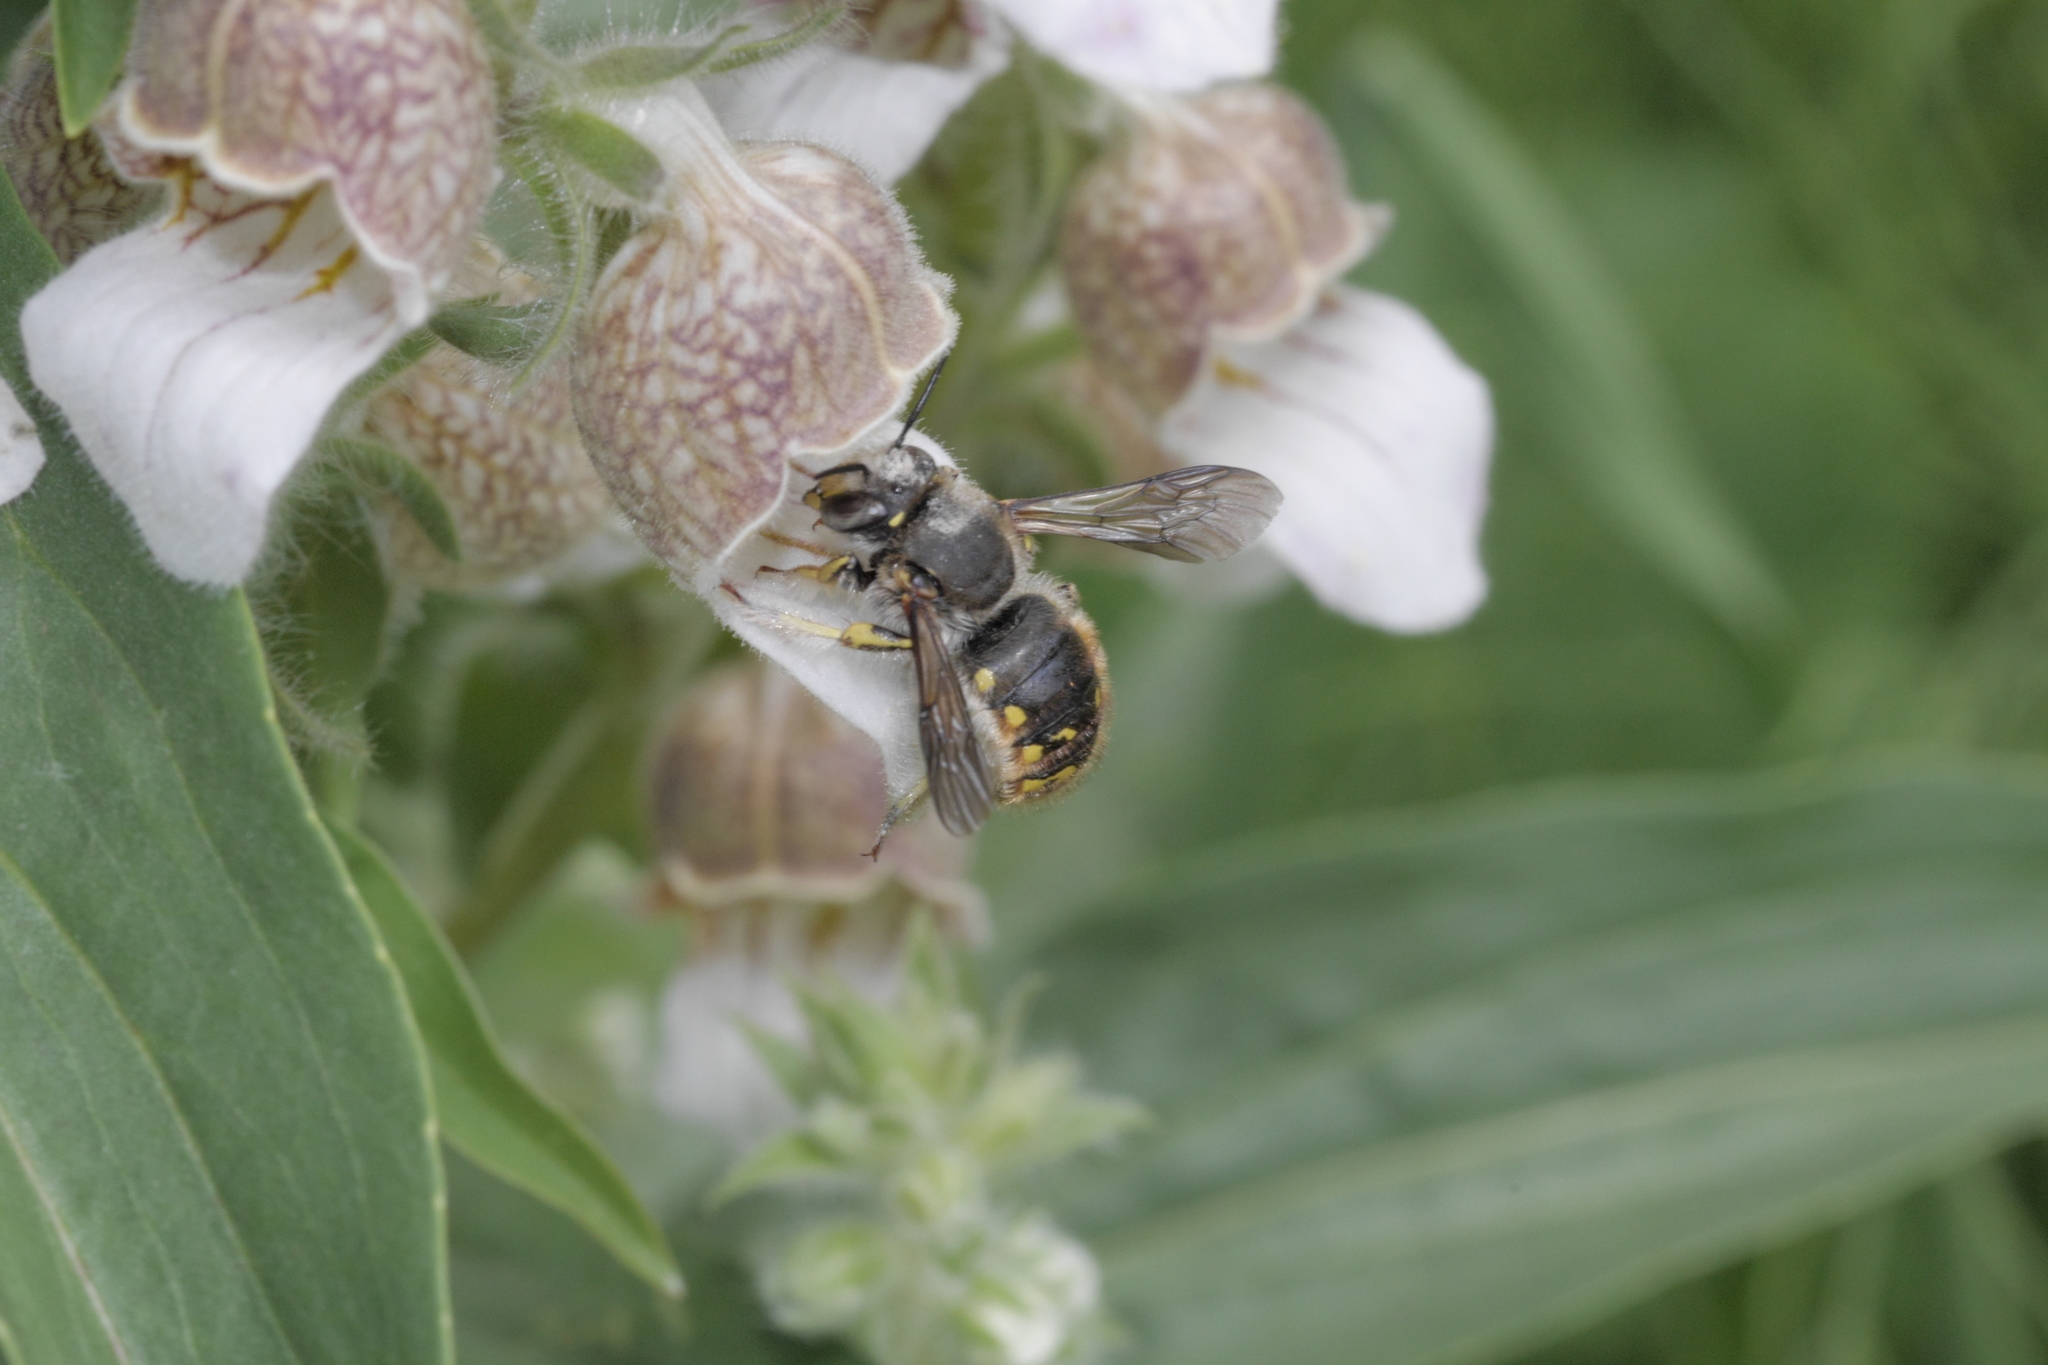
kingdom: Animalia
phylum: Arthropoda
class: Insecta
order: Hymenoptera
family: Megachilidae
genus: Anthidium
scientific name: Anthidium manicatum
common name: Wool carder bee
